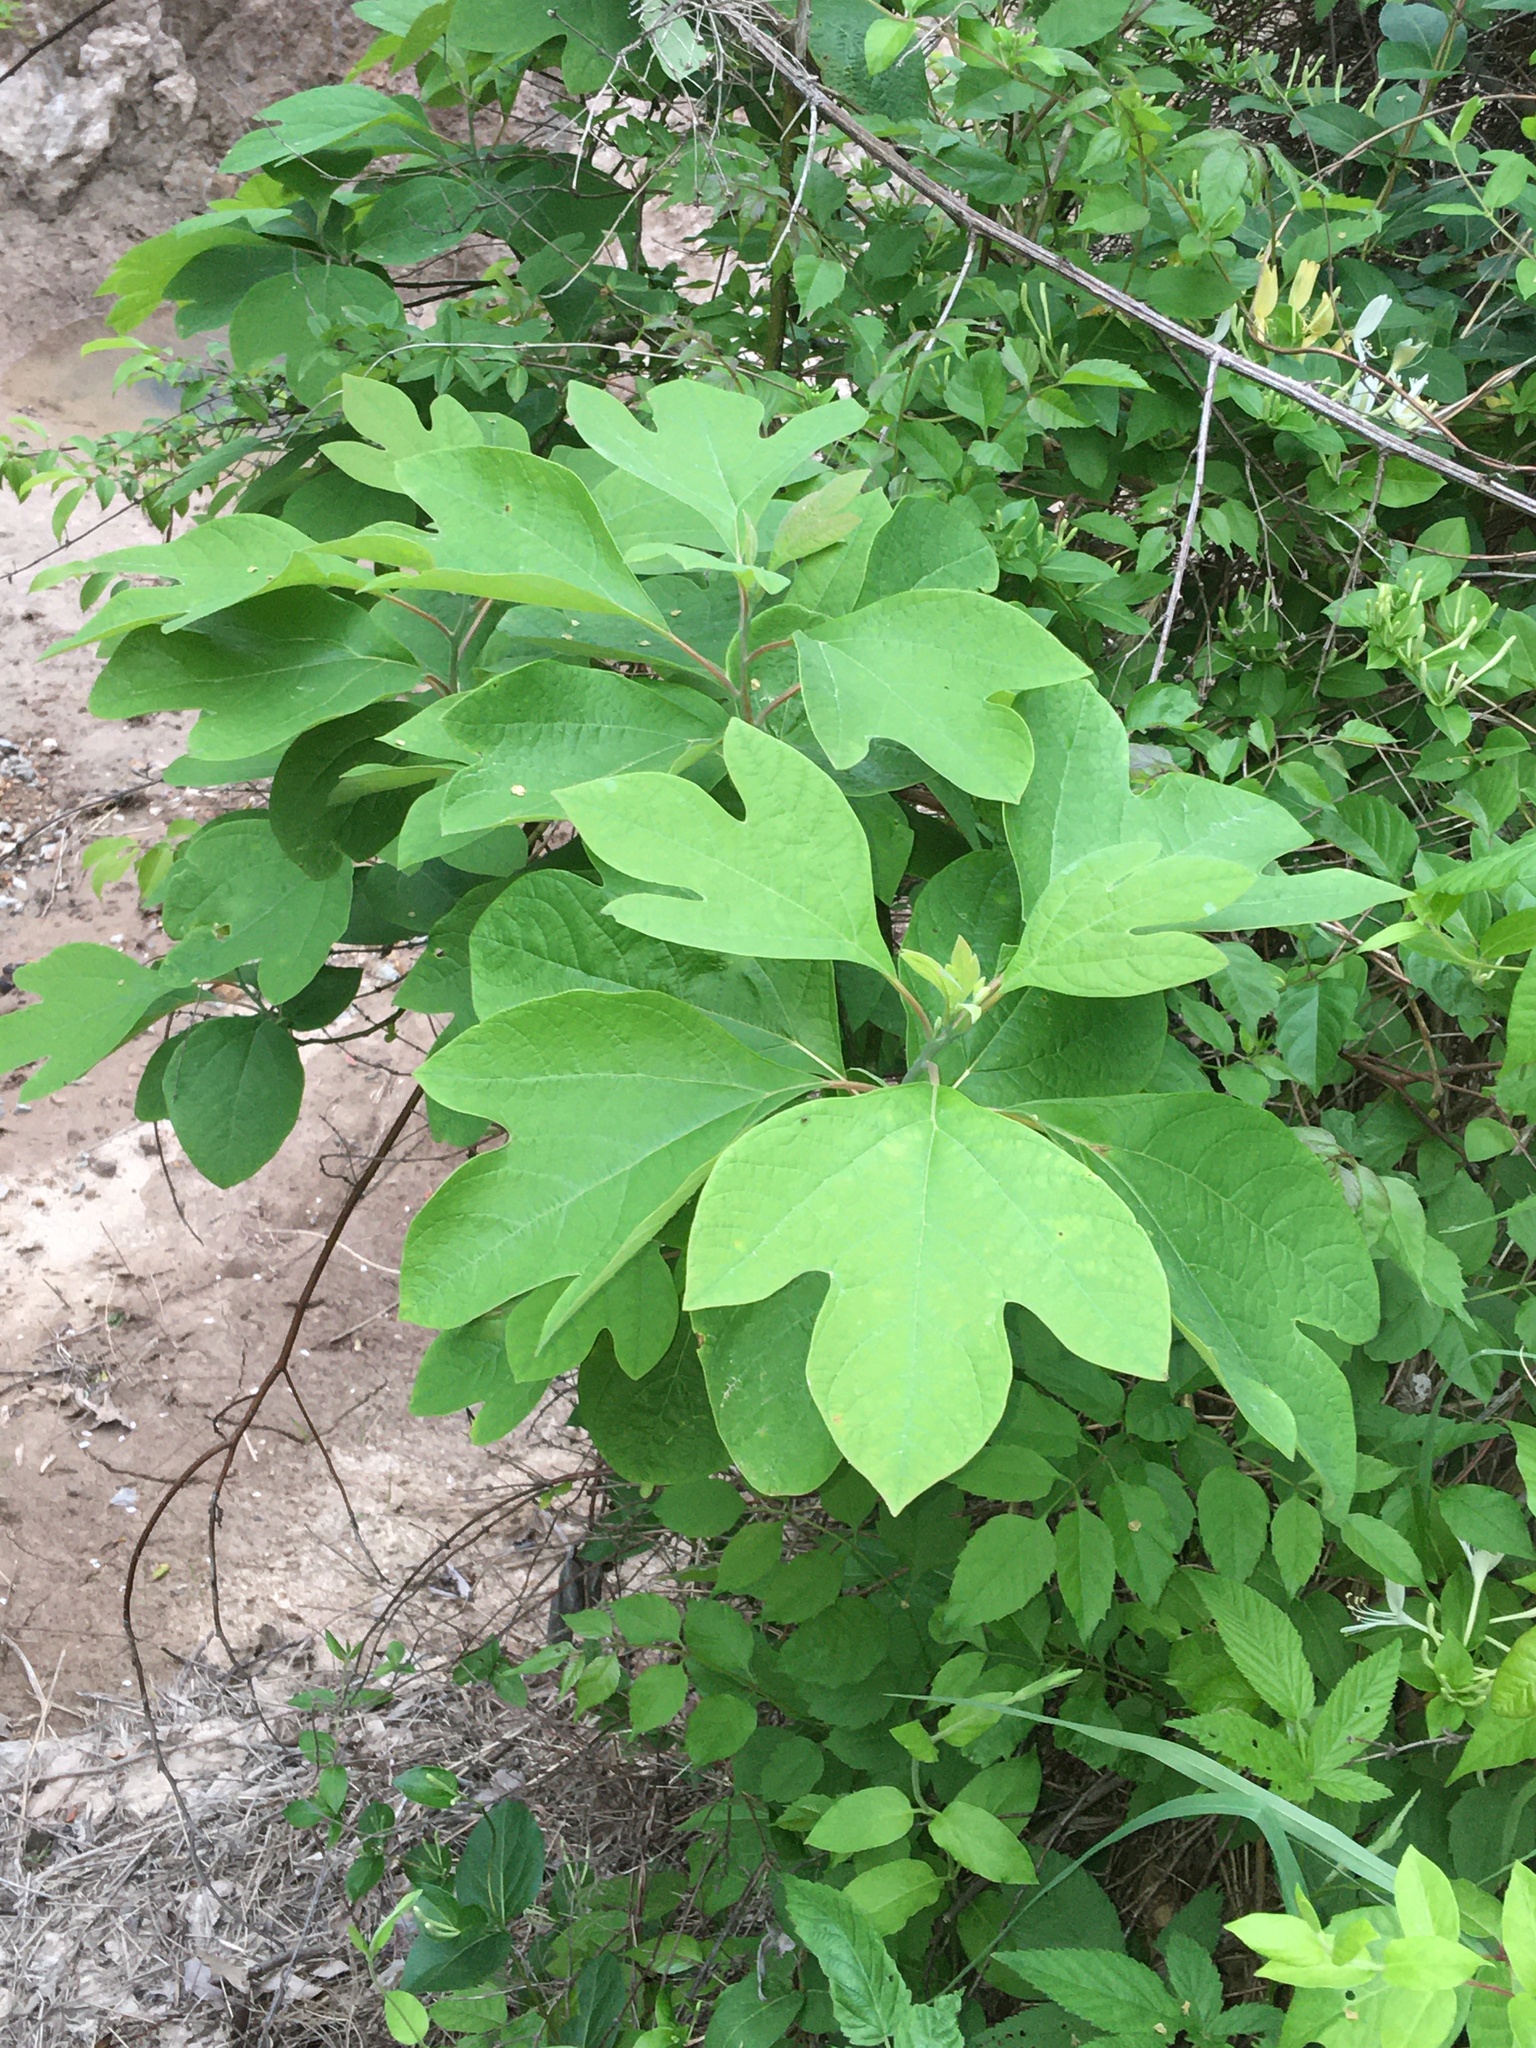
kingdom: Plantae
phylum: Tracheophyta
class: Magnoliopsida
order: Laurales
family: Lauraceae
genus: Sassafras
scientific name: Sassafras albidum
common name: Sassafras
